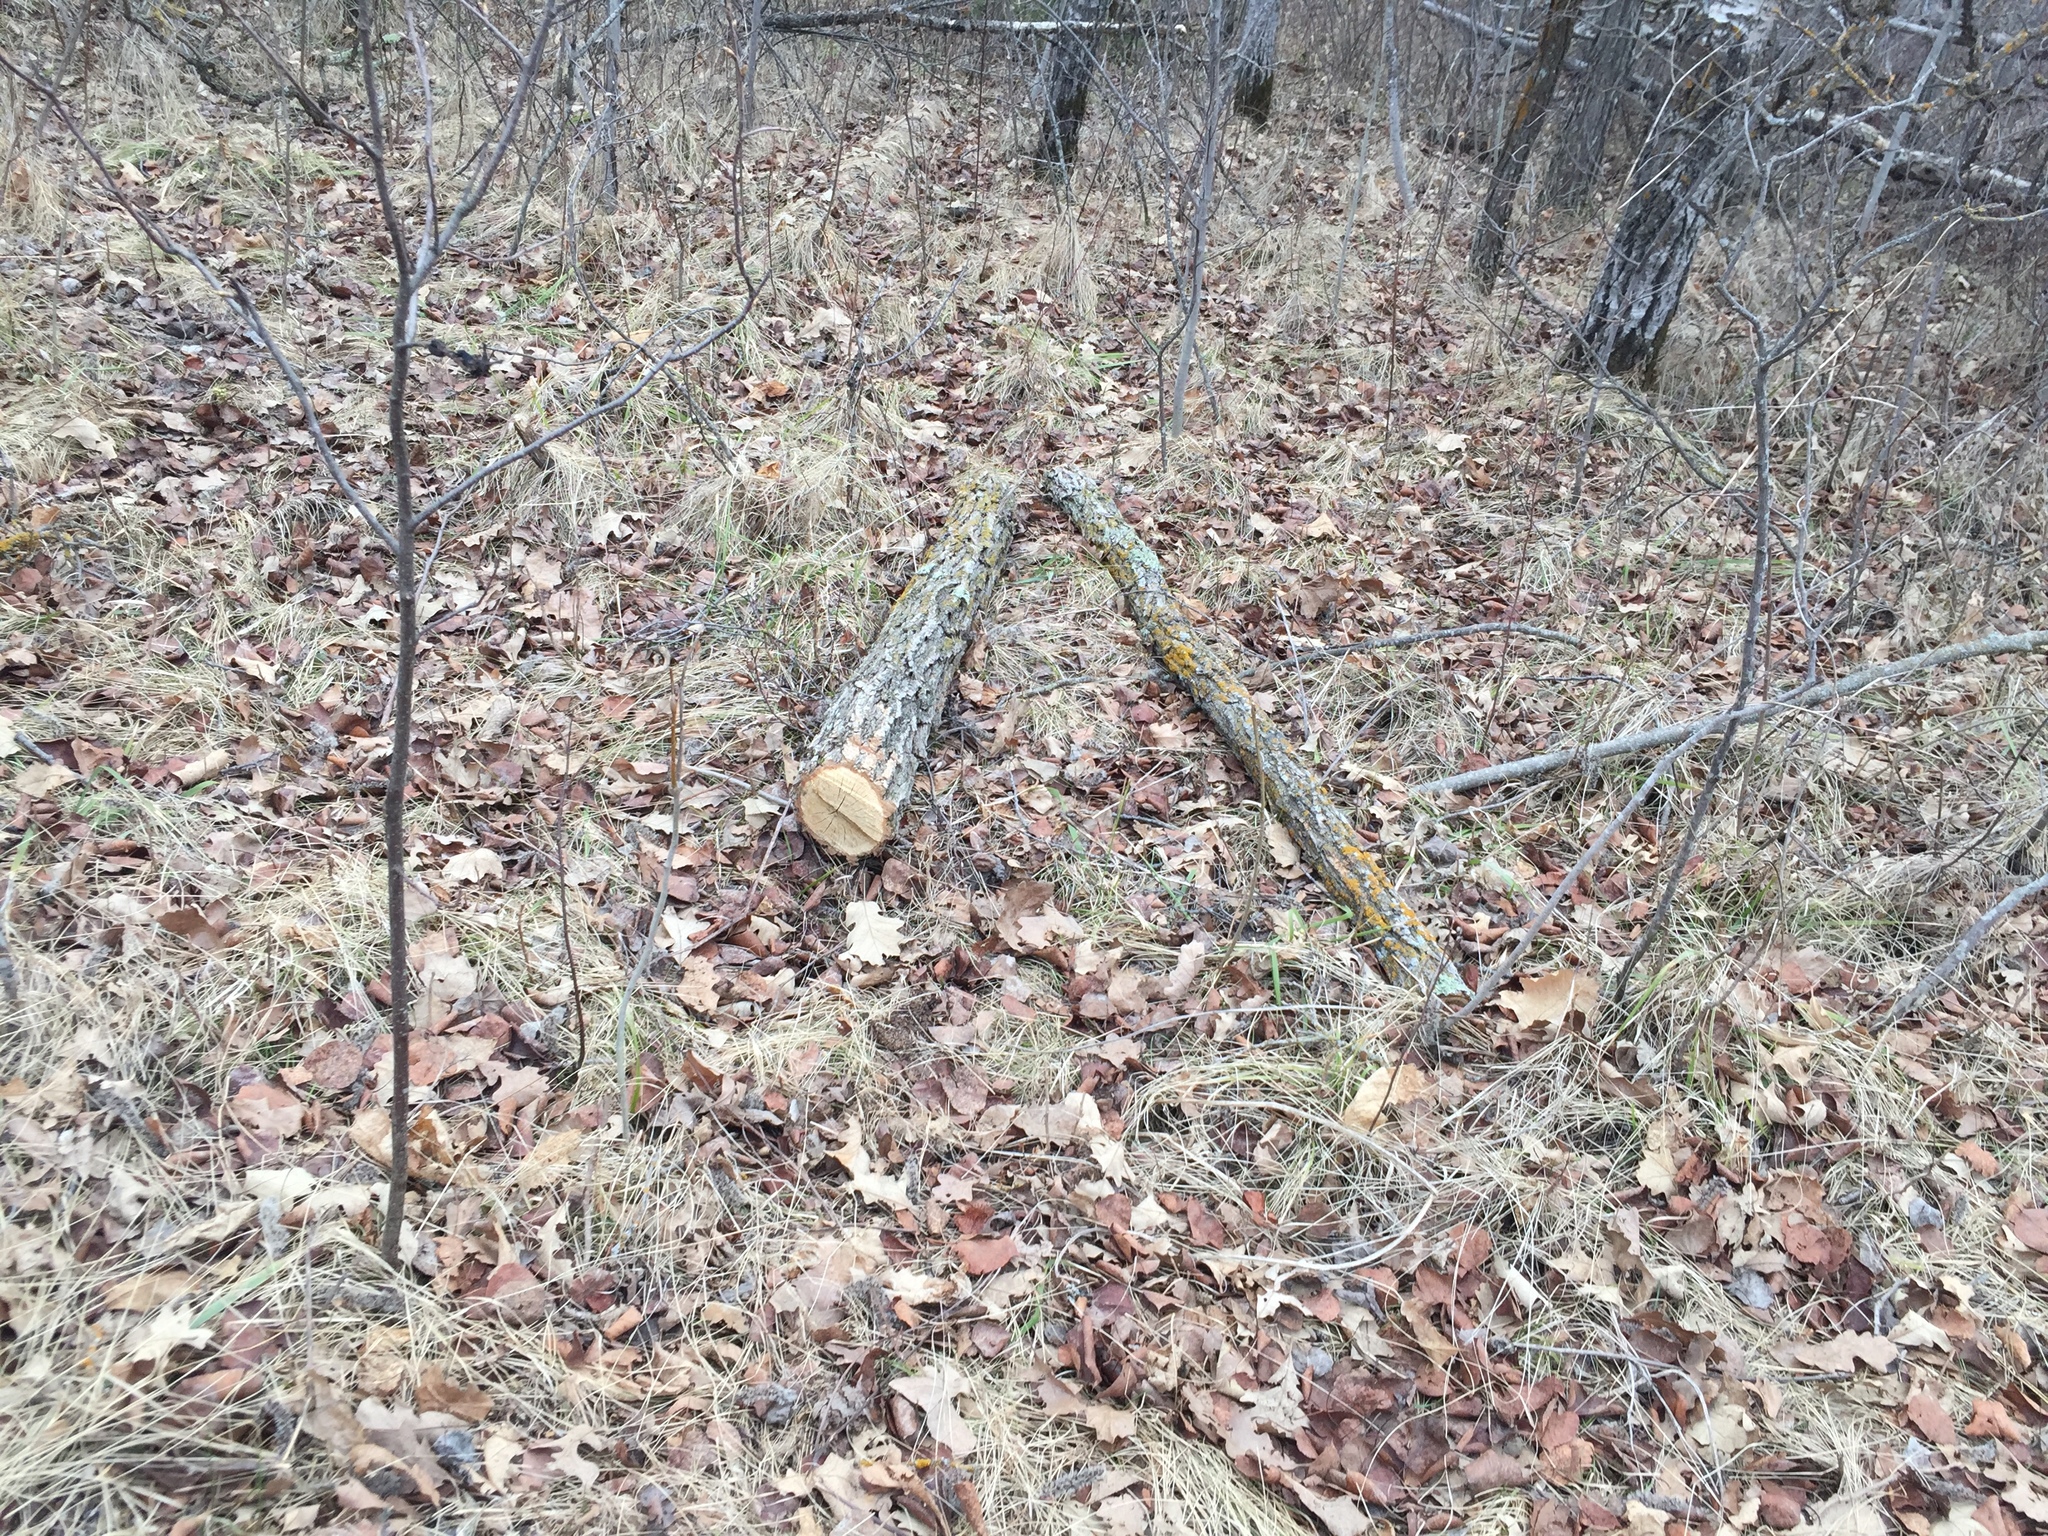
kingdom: Plantae
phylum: Tracheophyta
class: Magnoliopsida
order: Fagales
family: Fagaceae
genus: Quercus
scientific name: Quercus macrocarpa
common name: Bur oak
